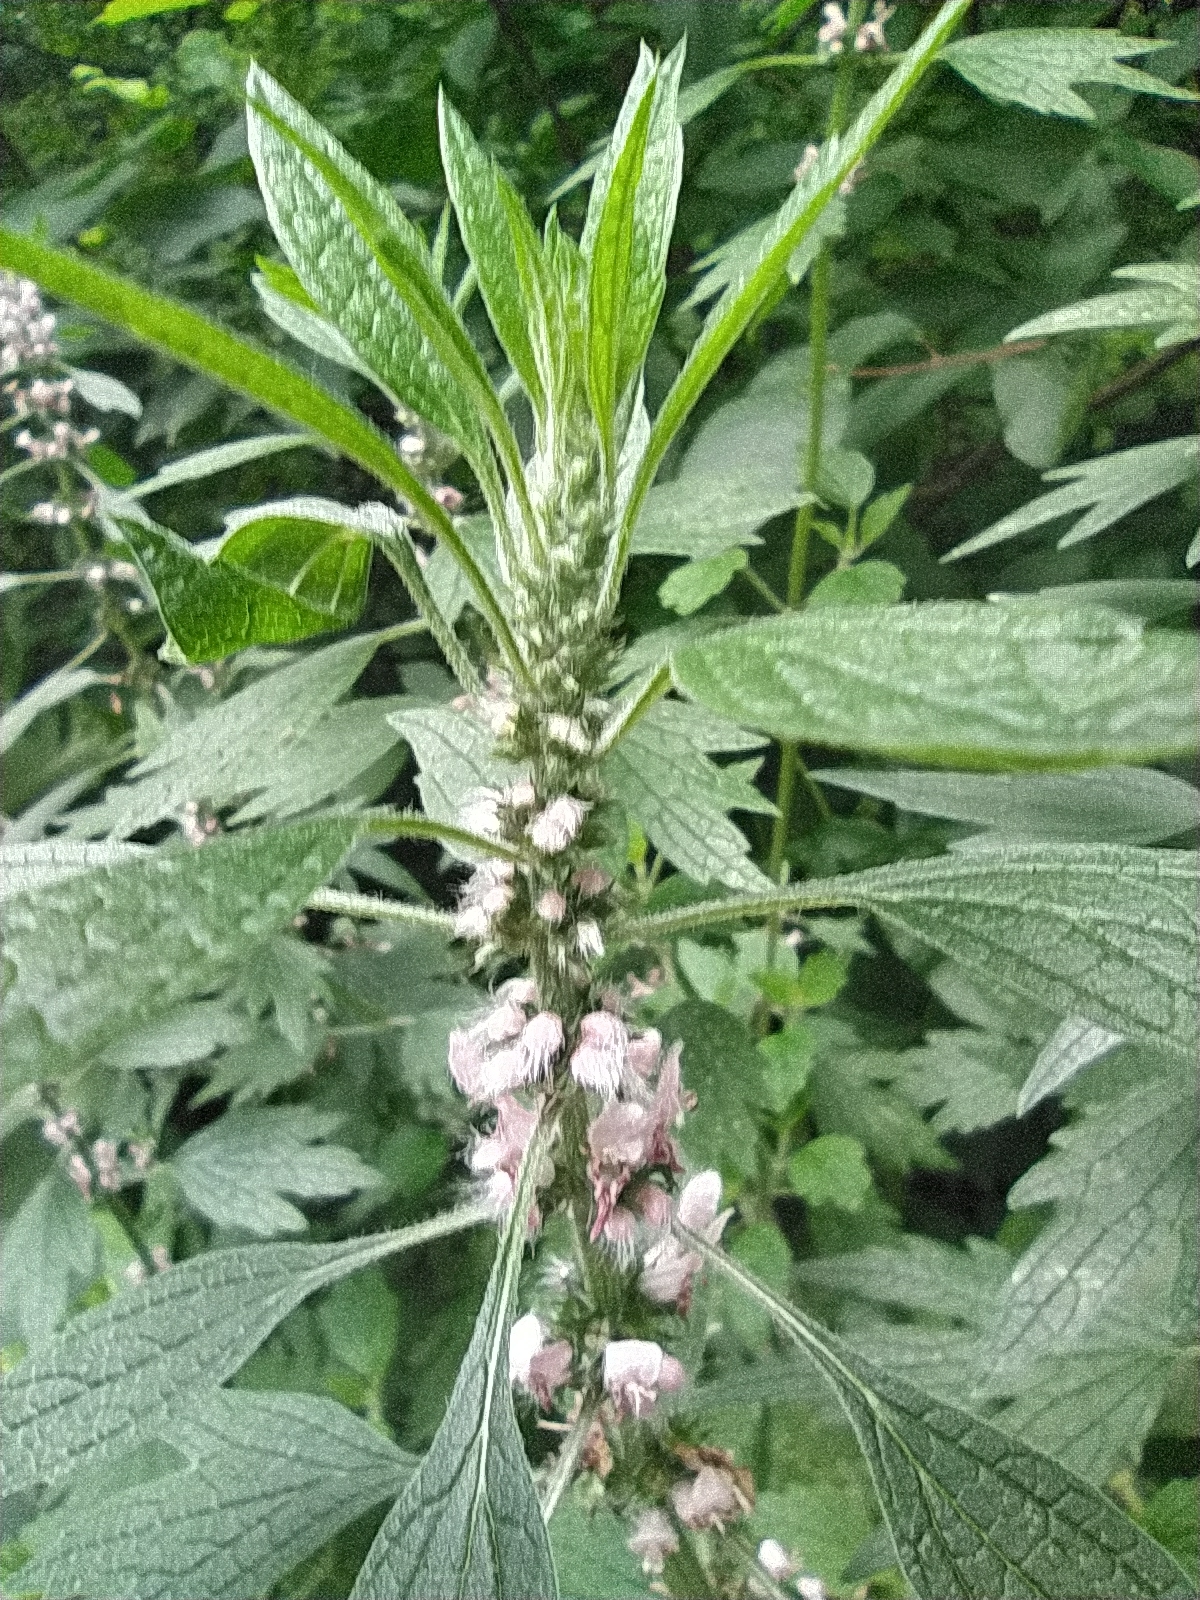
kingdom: Plantae
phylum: Tracheophyta
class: Magnoliopsida
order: Lamiales
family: Lamiaceae
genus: Leonurus
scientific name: Leonurus quinquelobatus
